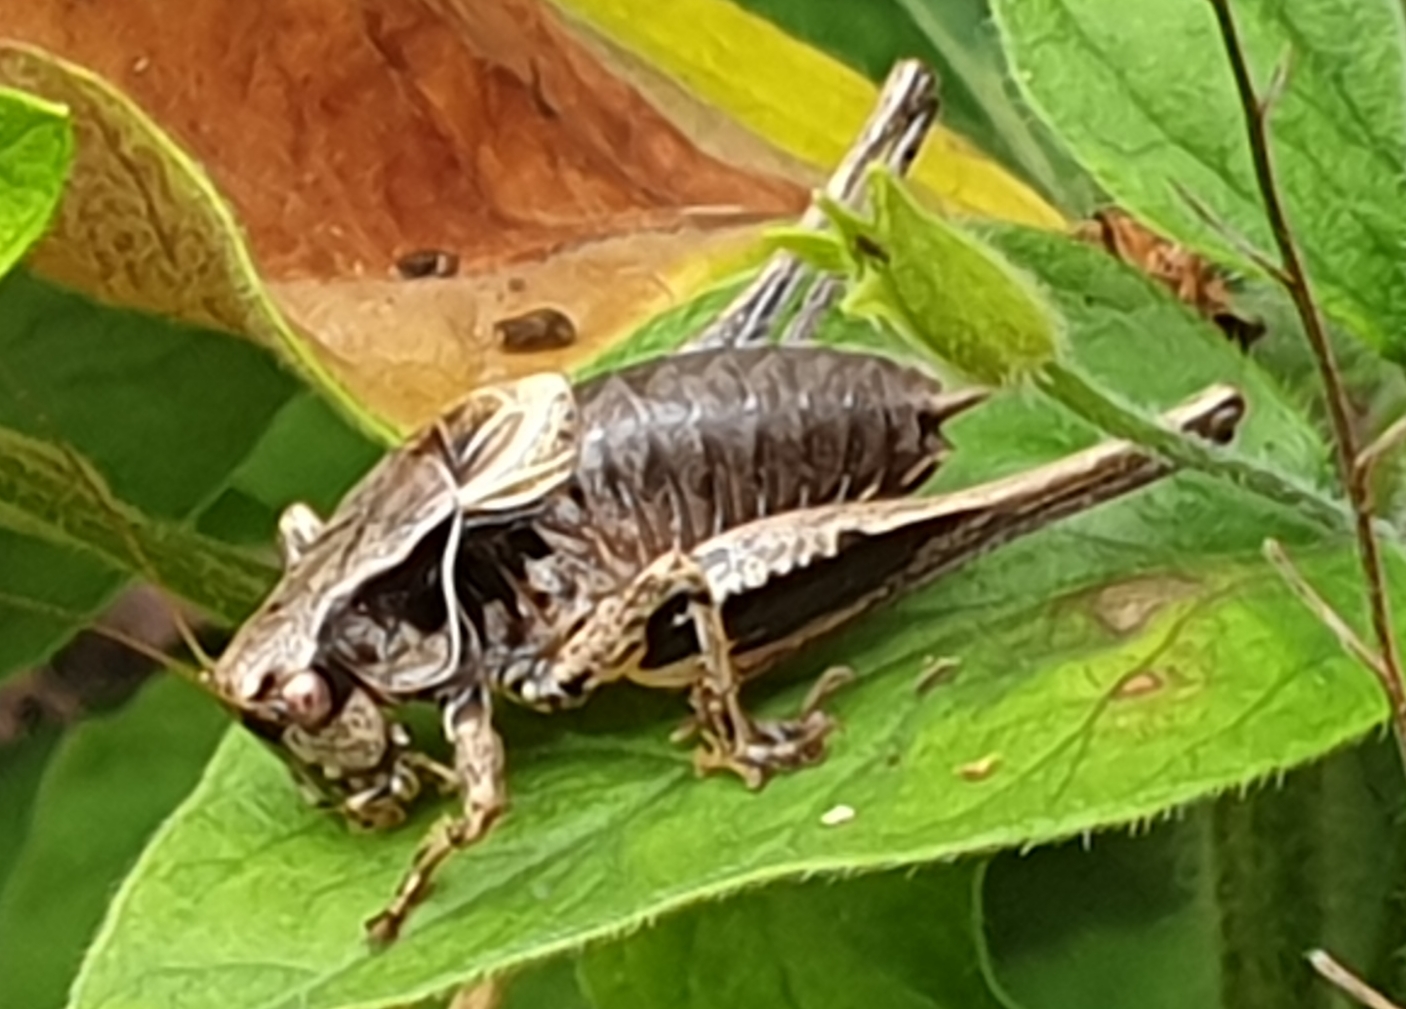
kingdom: Animalia
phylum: Arthropoda
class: Insecta
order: Orthoptera
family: Tettigoniidae
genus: Pholidoptera
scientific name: Pholidoptera griseoaptera
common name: Dark bush-cricket
